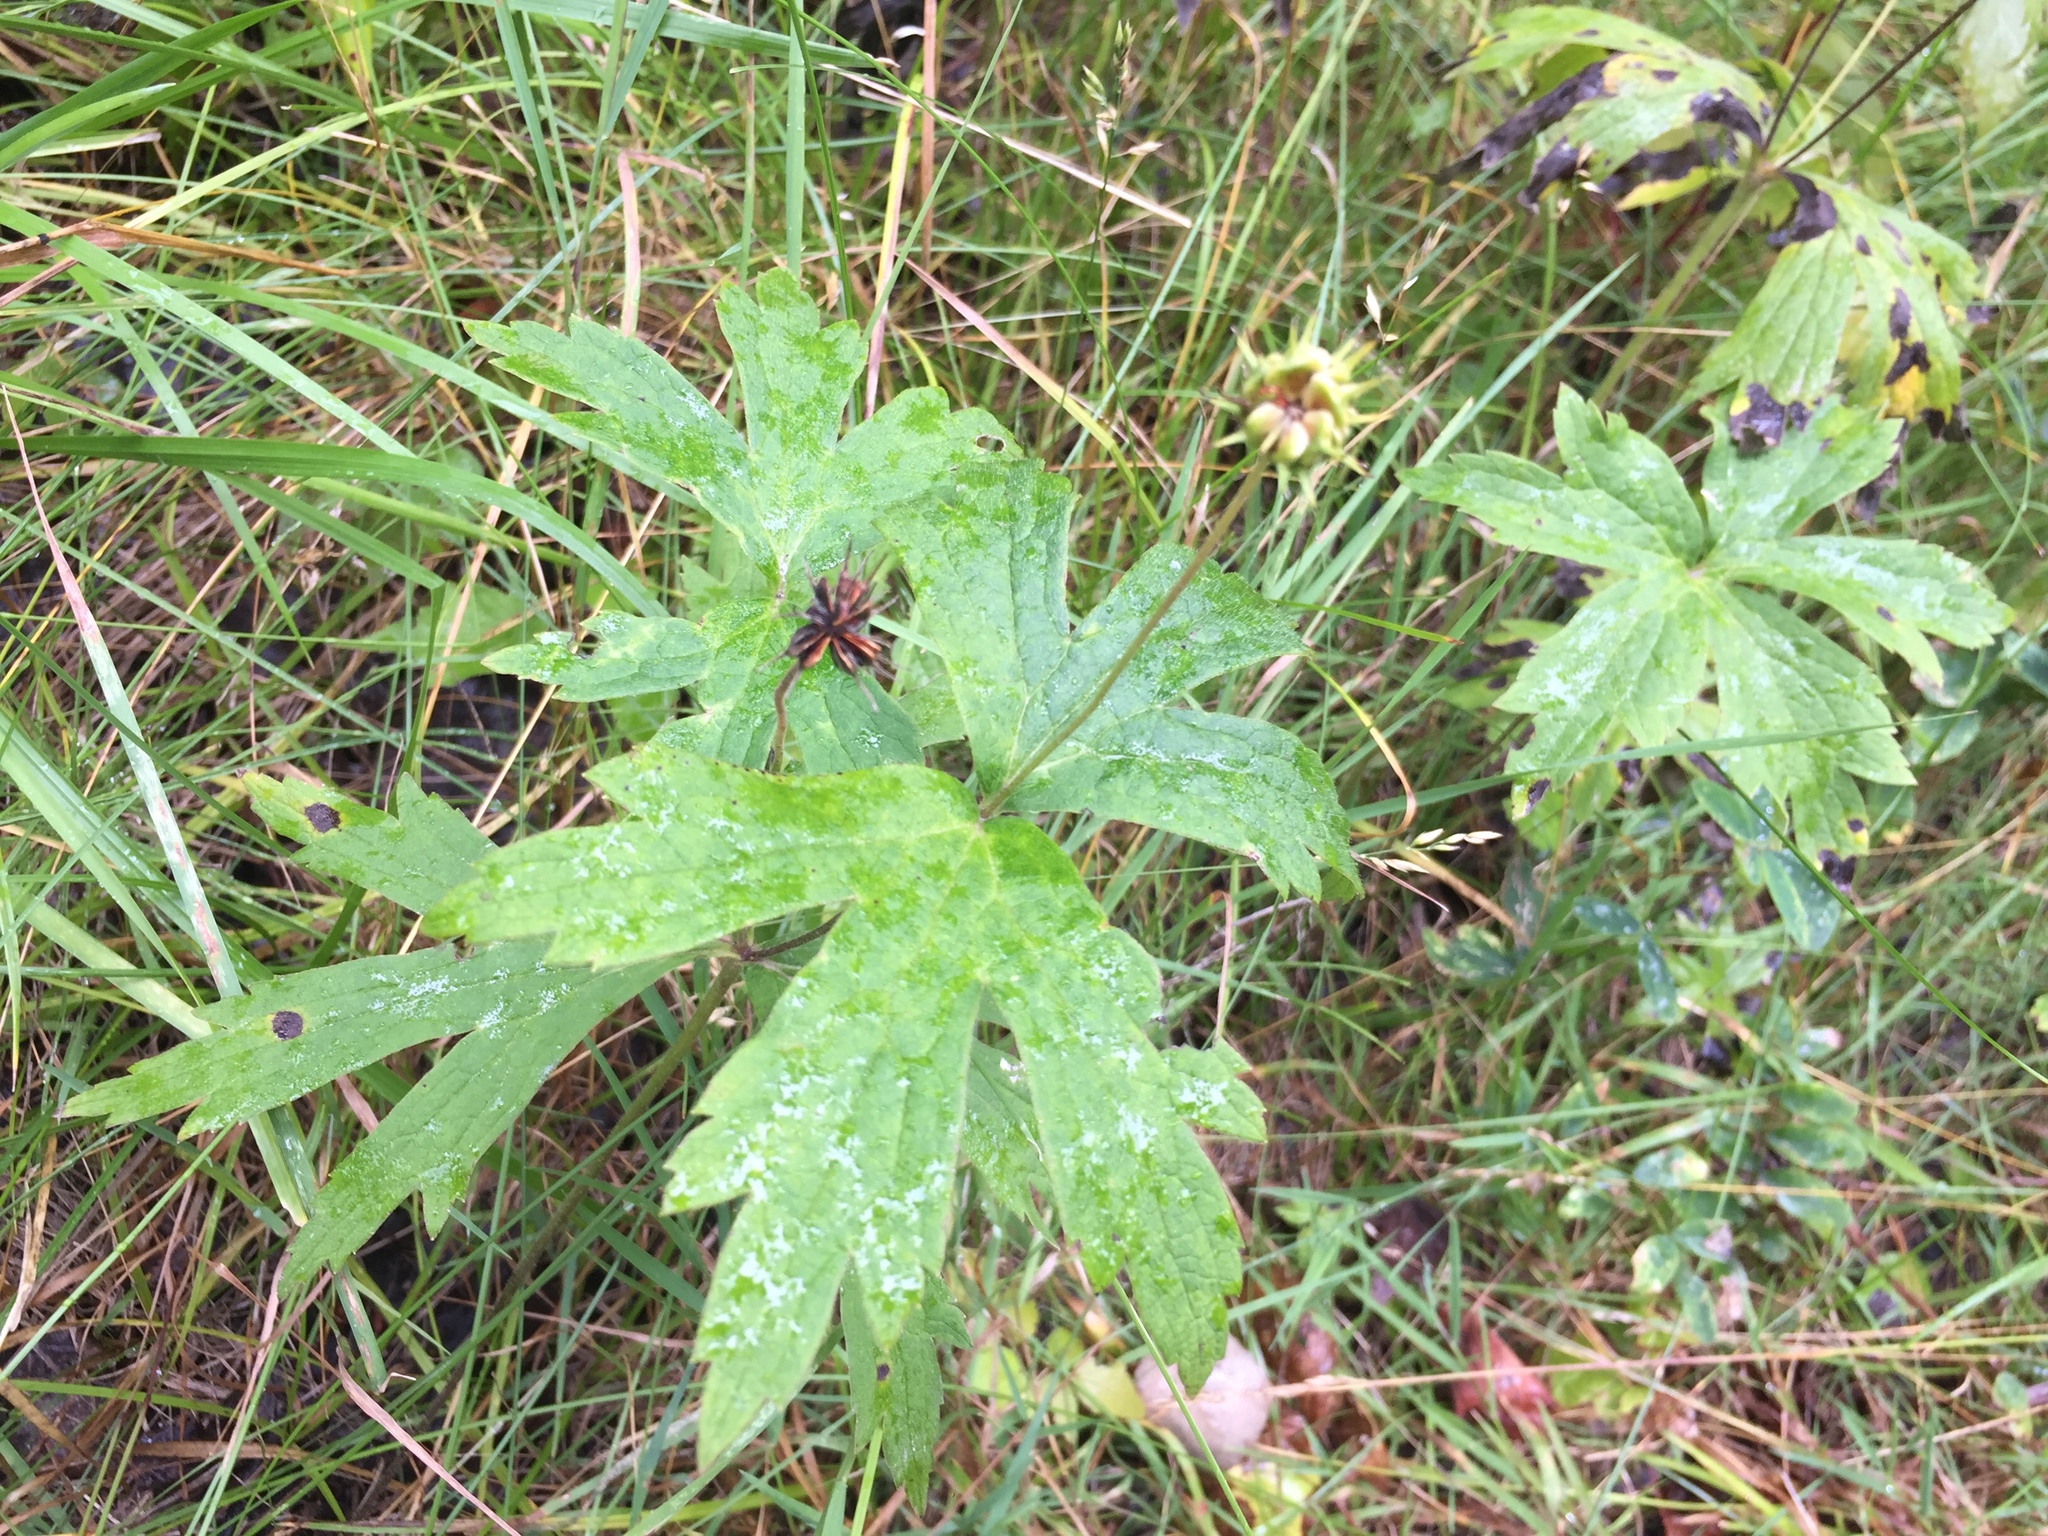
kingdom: Plantae
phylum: Tracheophyta
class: Magnoliopsida
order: Ranunculales
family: Ranunculaceae
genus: Anemonastrum
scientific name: Anemonastrum canadense
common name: Canada anemone
